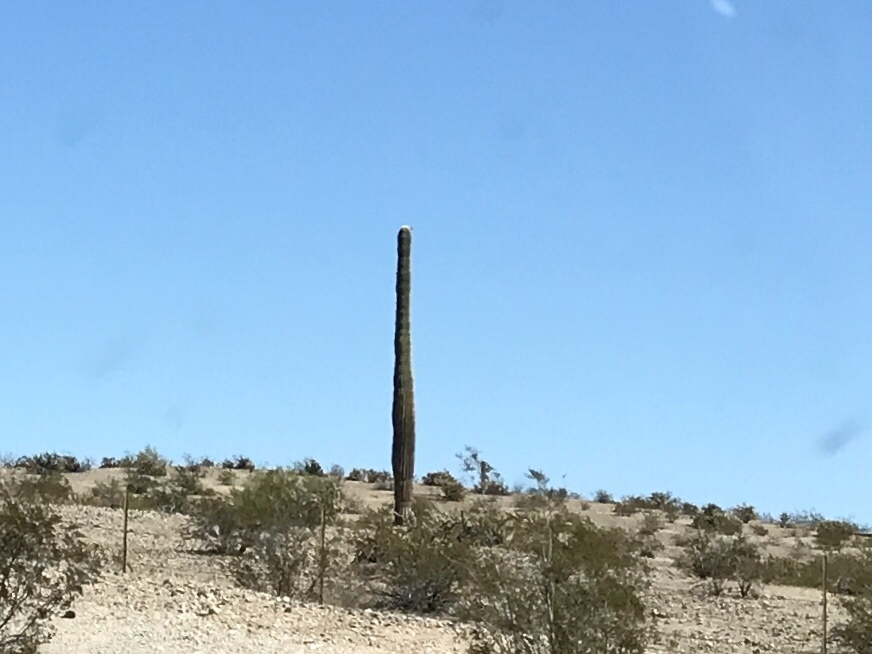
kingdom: Plantae
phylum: Tracheophyta
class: Magnoliopsida
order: Caryophyllales
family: Cactaceae
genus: Carnegiea
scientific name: Carnegiea gigantea
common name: Saguaro
